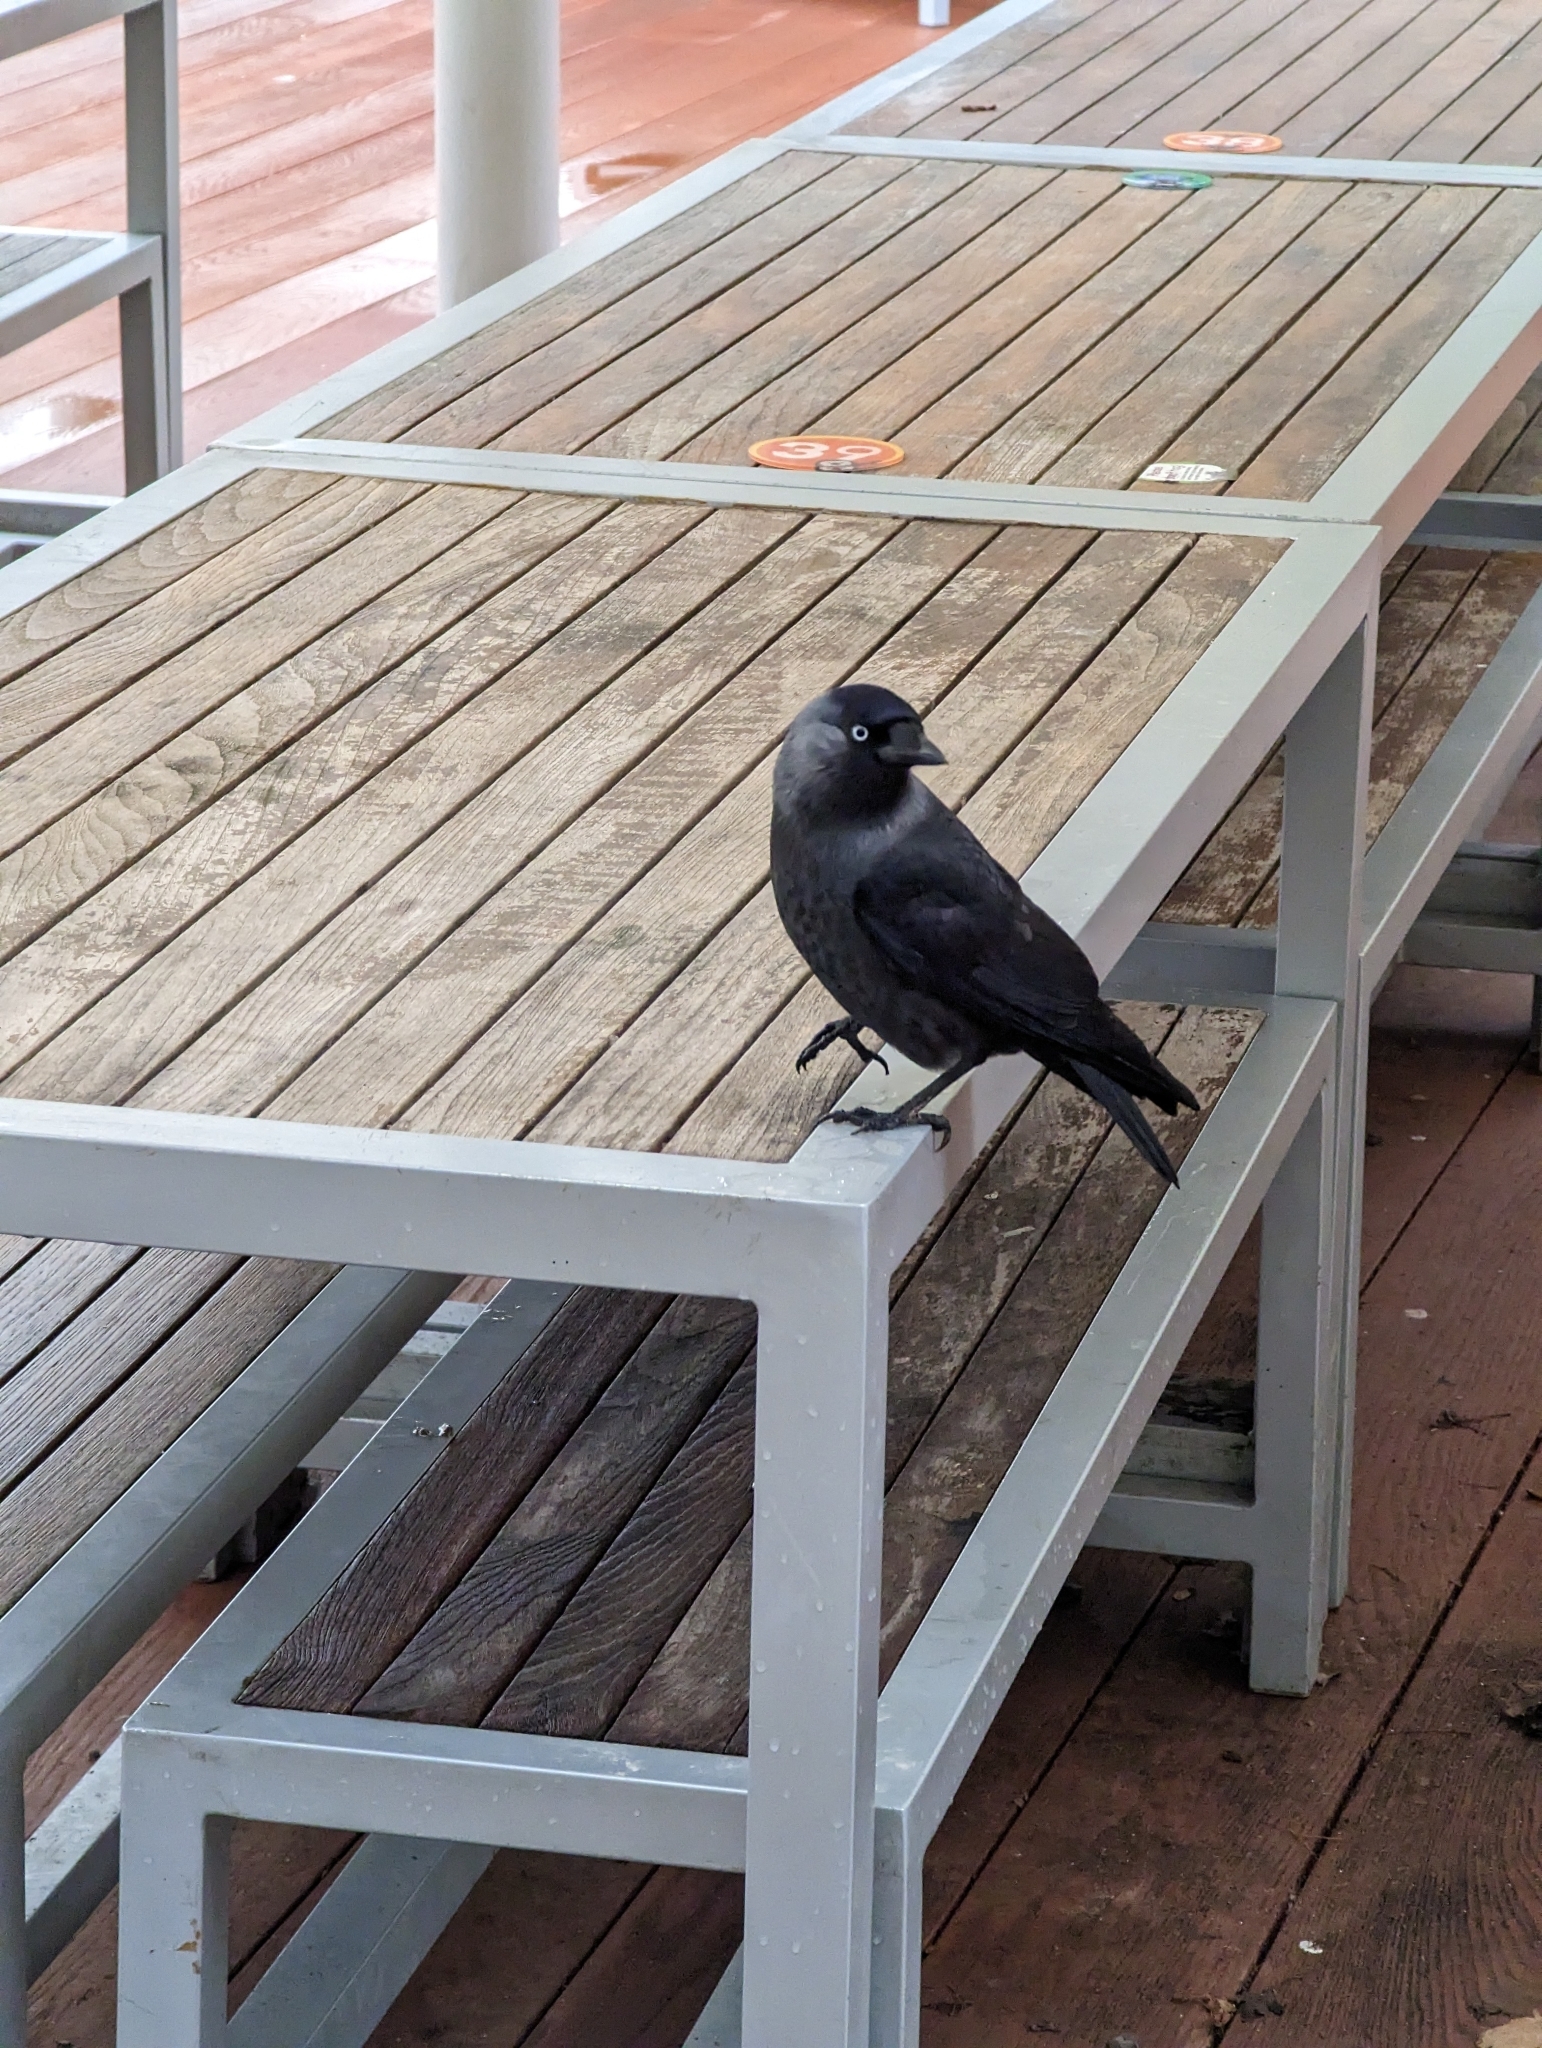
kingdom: Animalia
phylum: Chordata
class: Aves
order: Passeriformes
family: Corvidae
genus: Coloeus
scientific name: Coloeus monedula
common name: Western jackdaw
